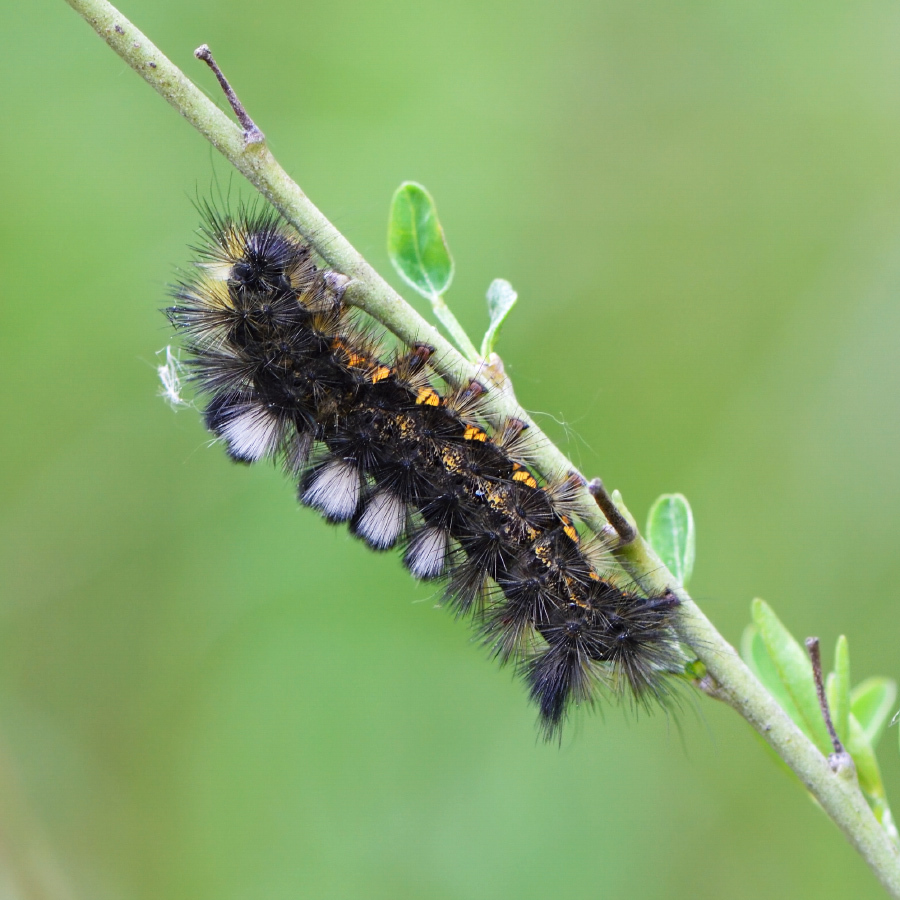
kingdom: Animalia
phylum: Arthropoda
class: Insecta
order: Lepidoptera
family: Erebidae
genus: Calliteara
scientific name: Calliteara Dicallomera fascelina
